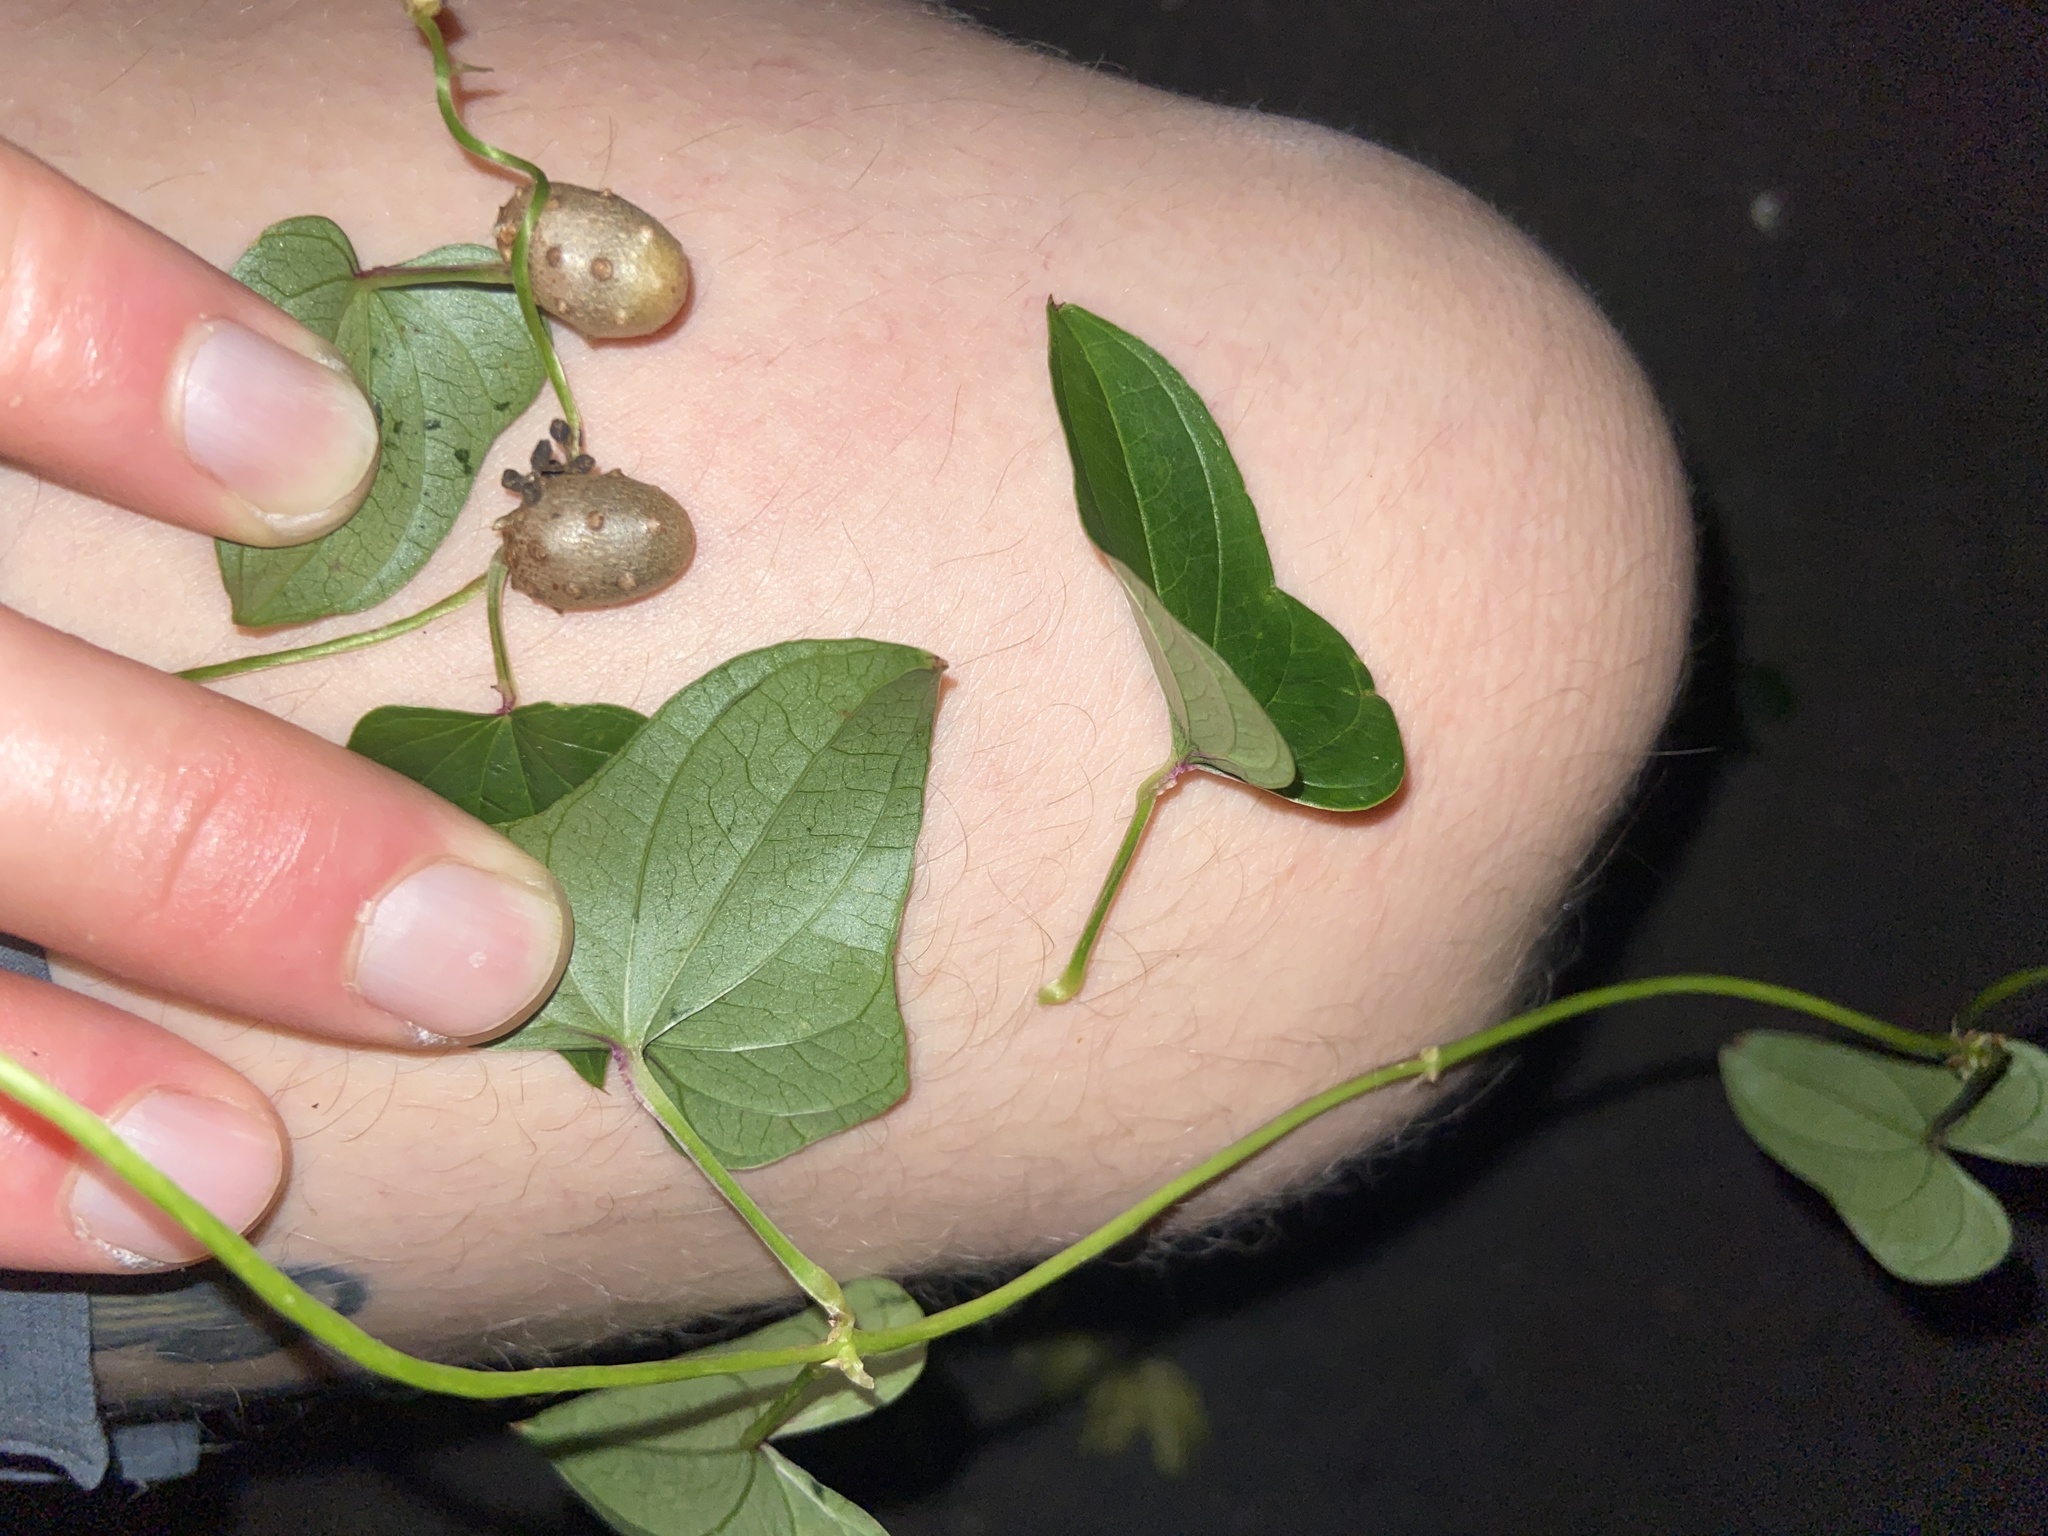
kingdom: Plantae
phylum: Tracheophyta
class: Liliopsida
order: Dioscoreales
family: Dioscoreaceae
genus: Dioscorea
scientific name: Dioscorea polystachya
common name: Chinese yam
